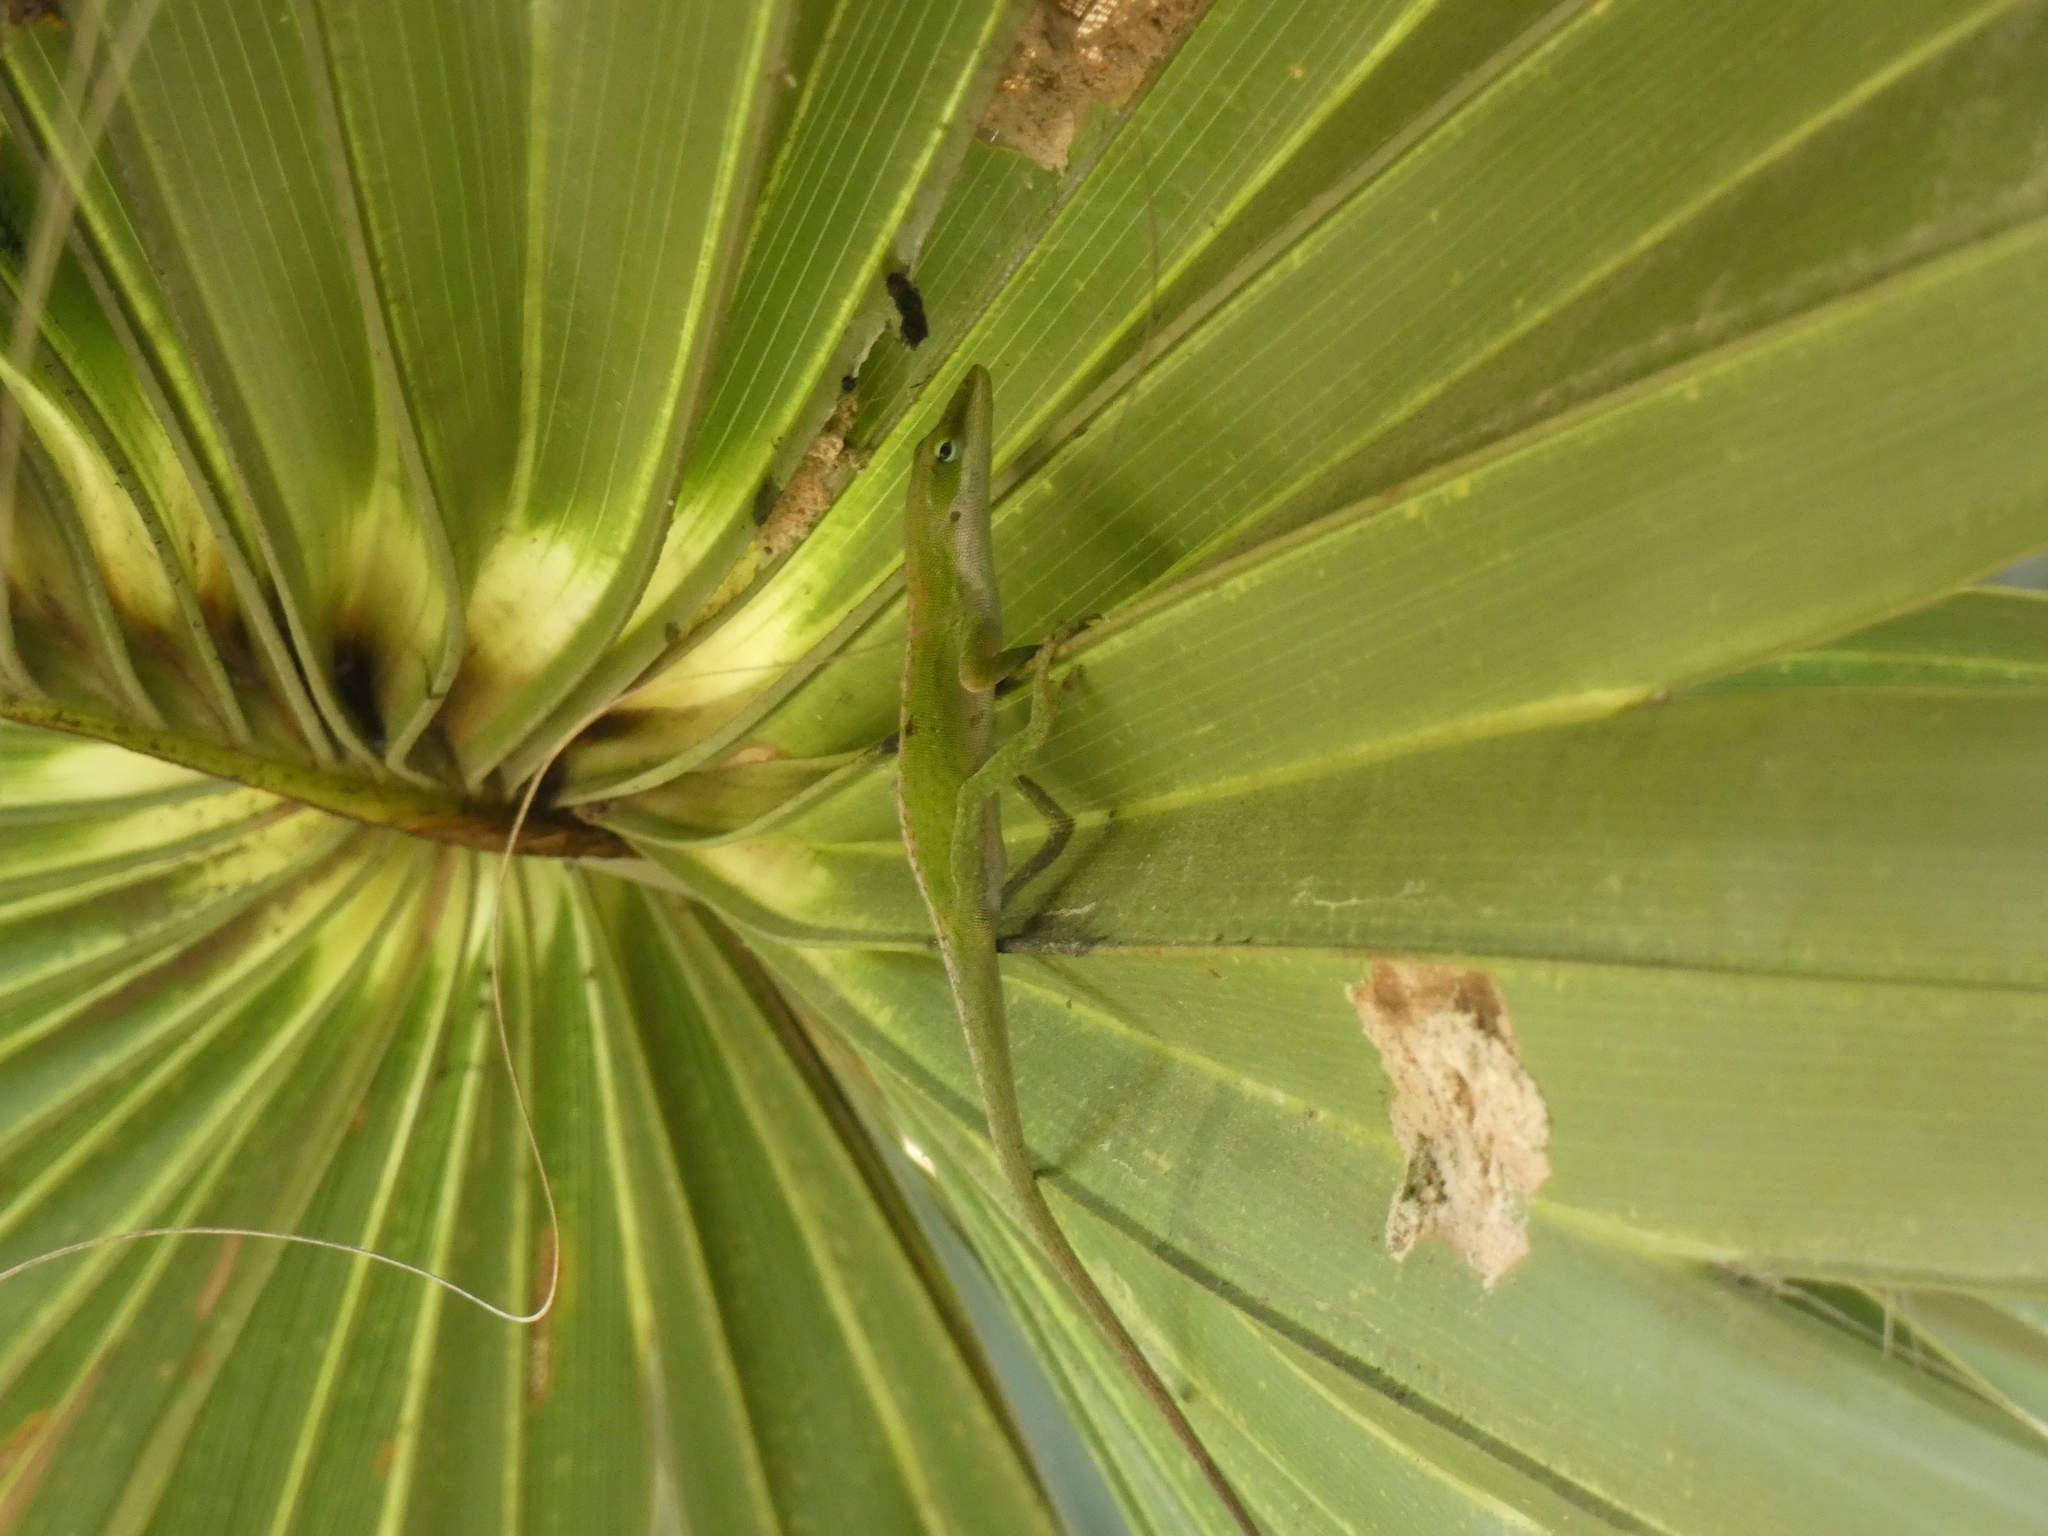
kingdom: Animalia
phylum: Chordata
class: Squamata
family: Dactyloidae
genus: Anolis
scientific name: Anolis carolinensis
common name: Green anole
